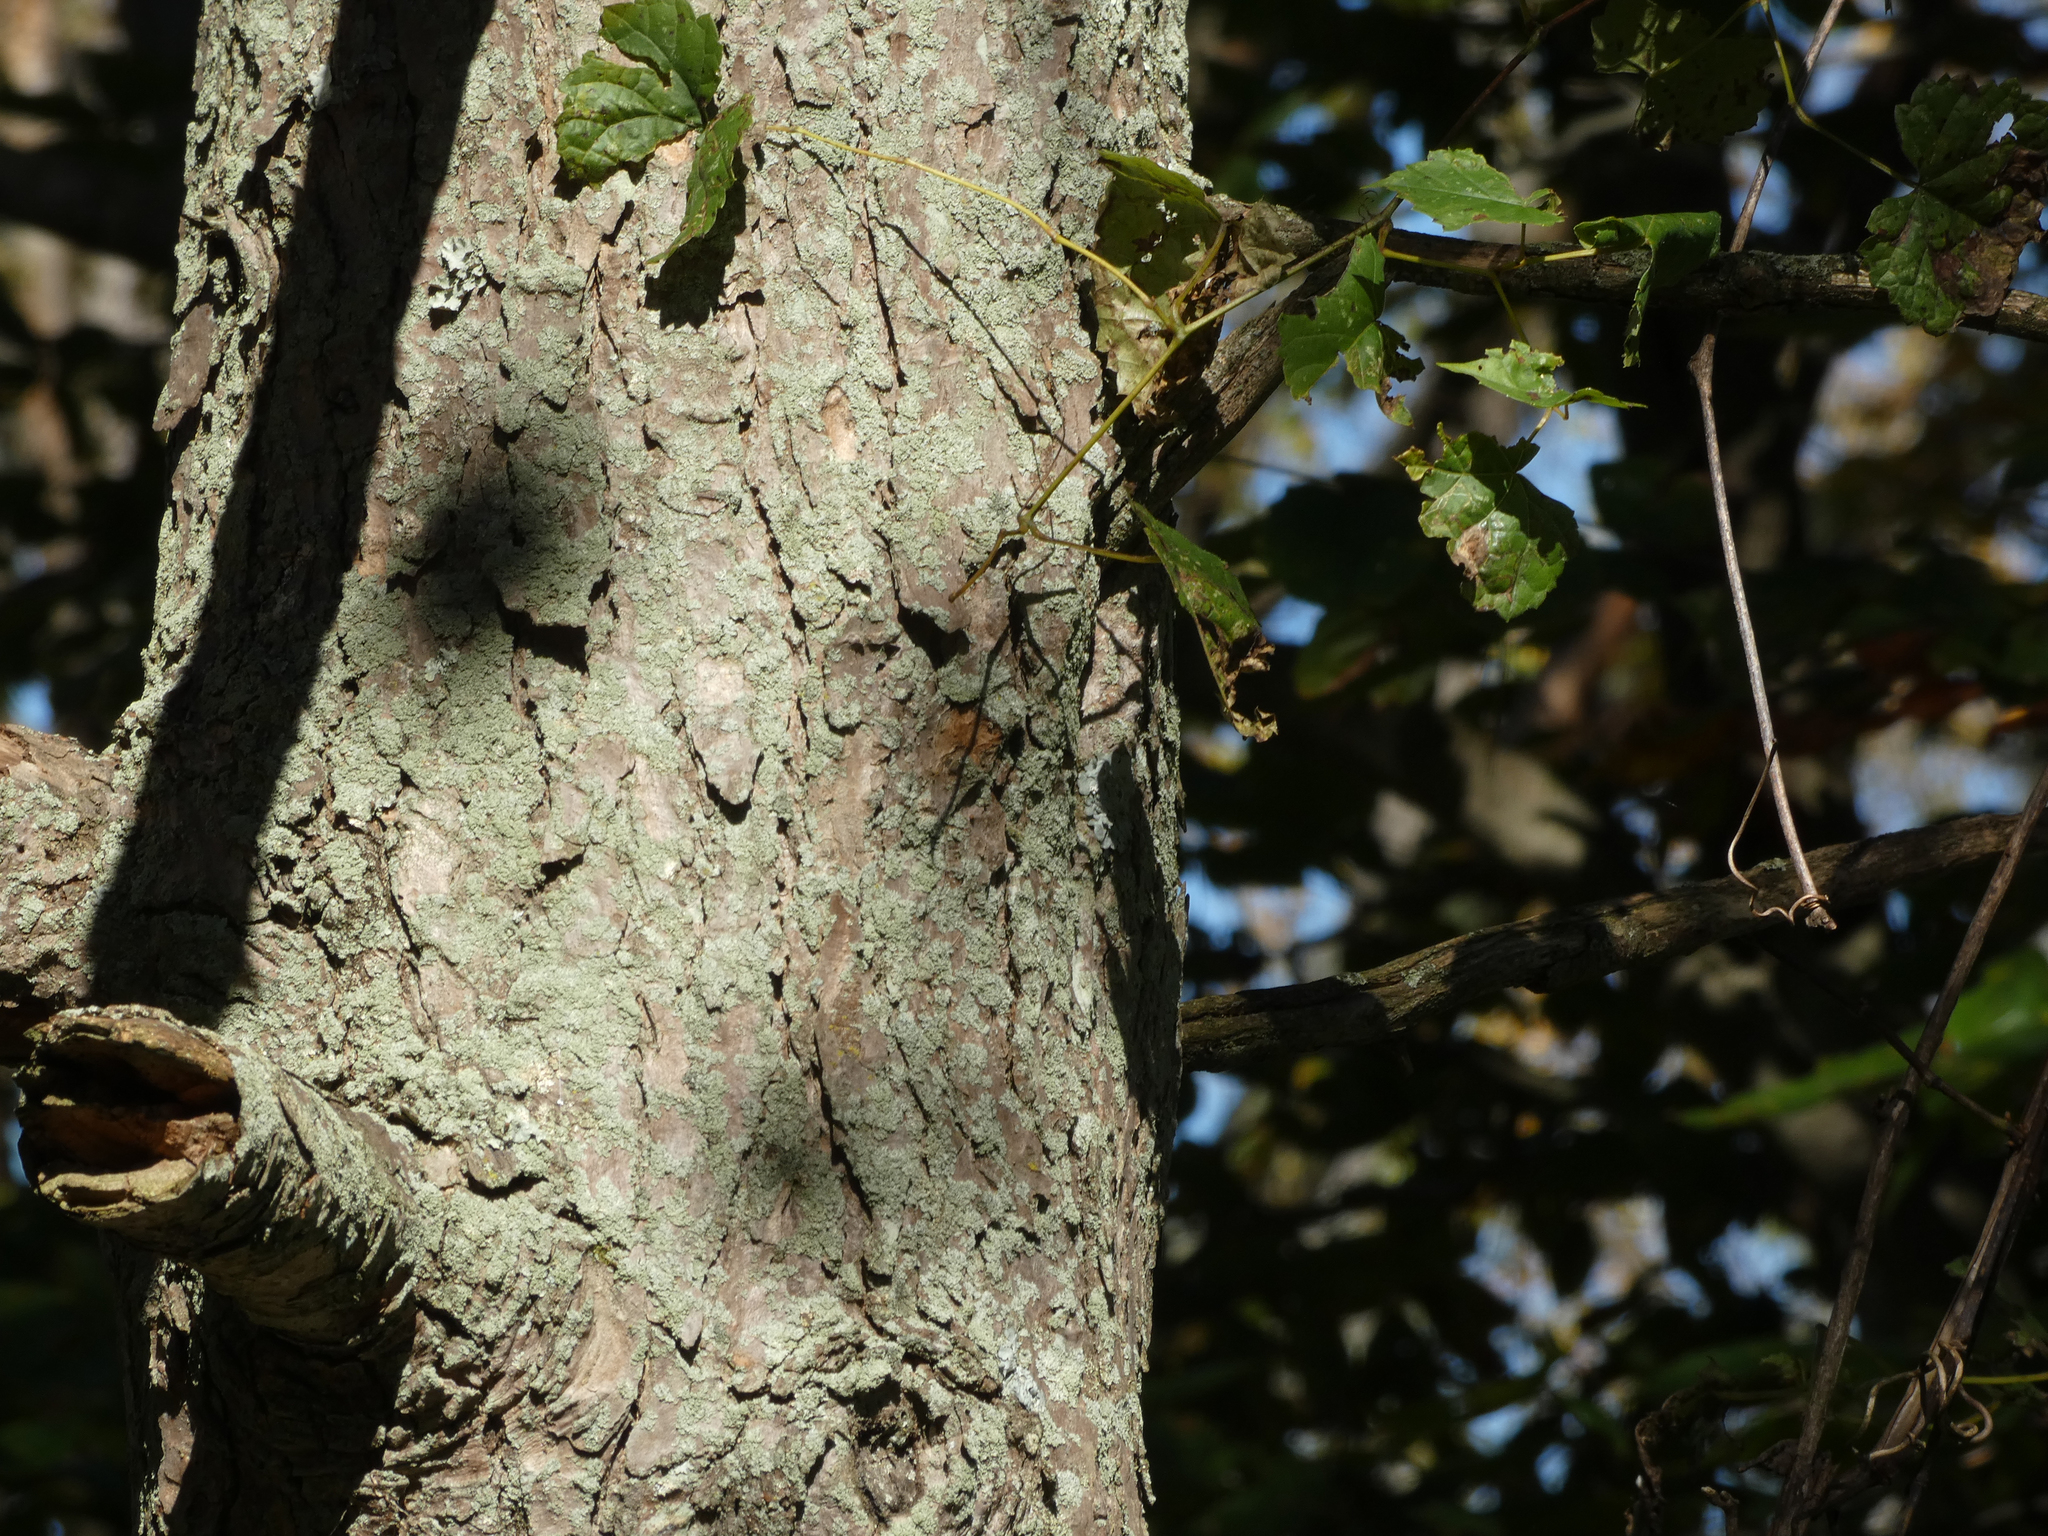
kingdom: Plantae
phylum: Tracheophyta
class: Pinopsida
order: Pinales
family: Pinaceae
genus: Tsuga
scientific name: Tsuga canadensis
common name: Eastern hemlock
